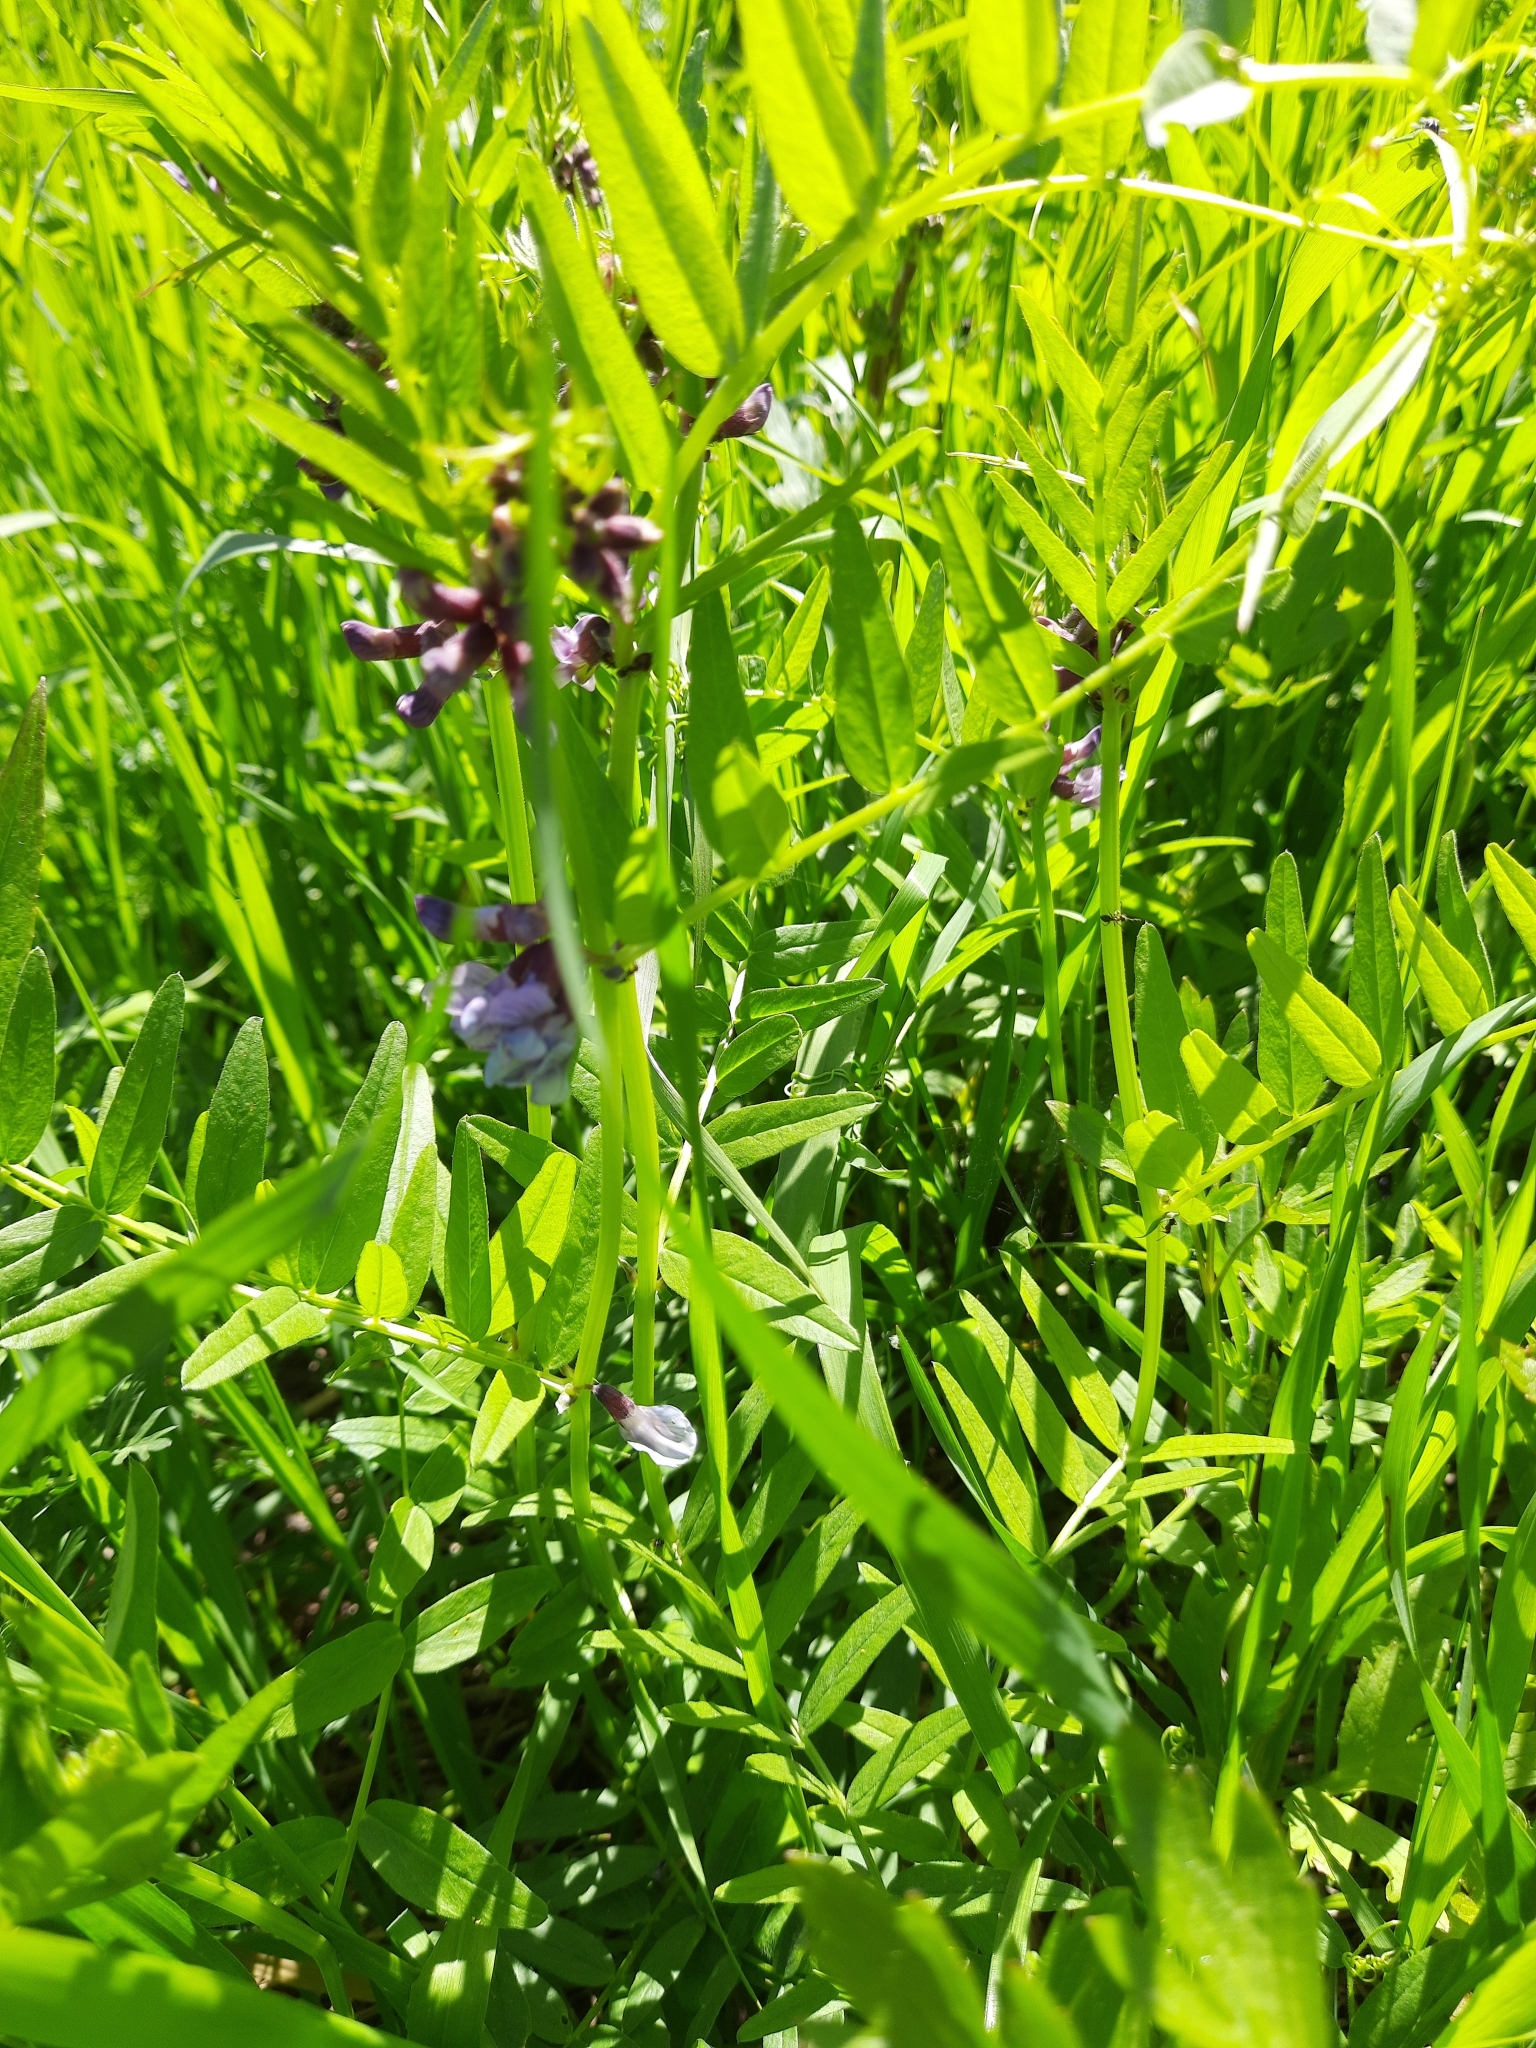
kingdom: Plantae
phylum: Tracheophyta
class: Magnoliopsida
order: Fabales
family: Fabaceae
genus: Vicia
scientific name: Vicia sepium
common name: Bush vetch
